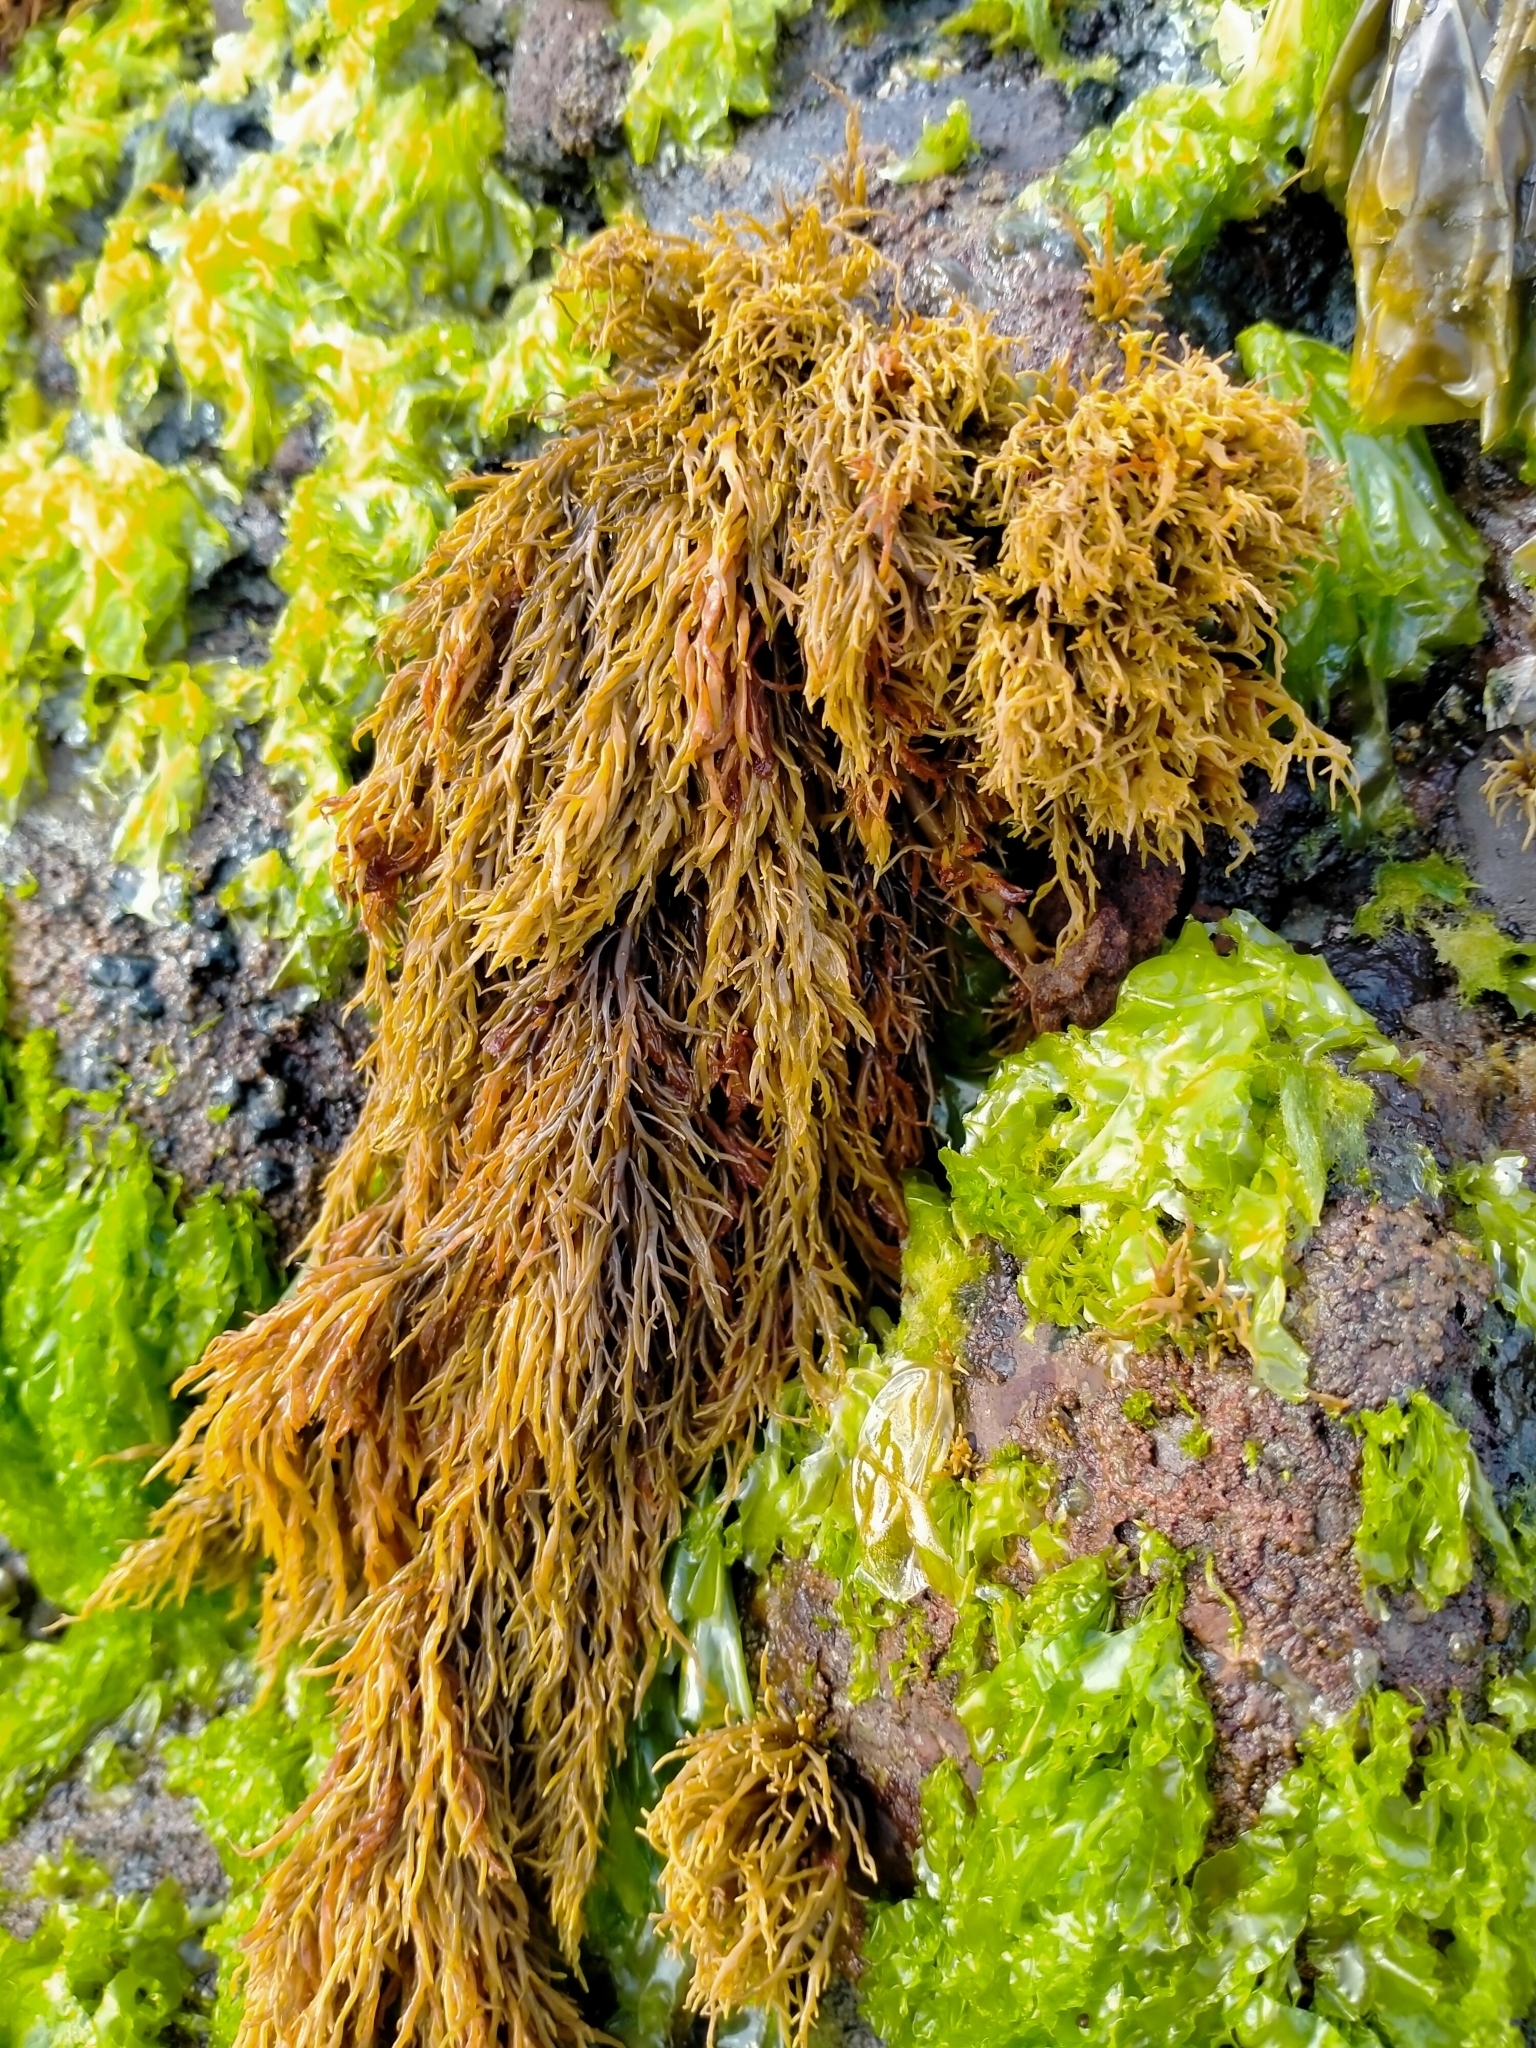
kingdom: Chromista
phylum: Ochrophyta
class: Phaeophyceae
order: Scytothamnales
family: Scytothamnaceae
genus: Scytothamnus
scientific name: Scytothamnus australis
